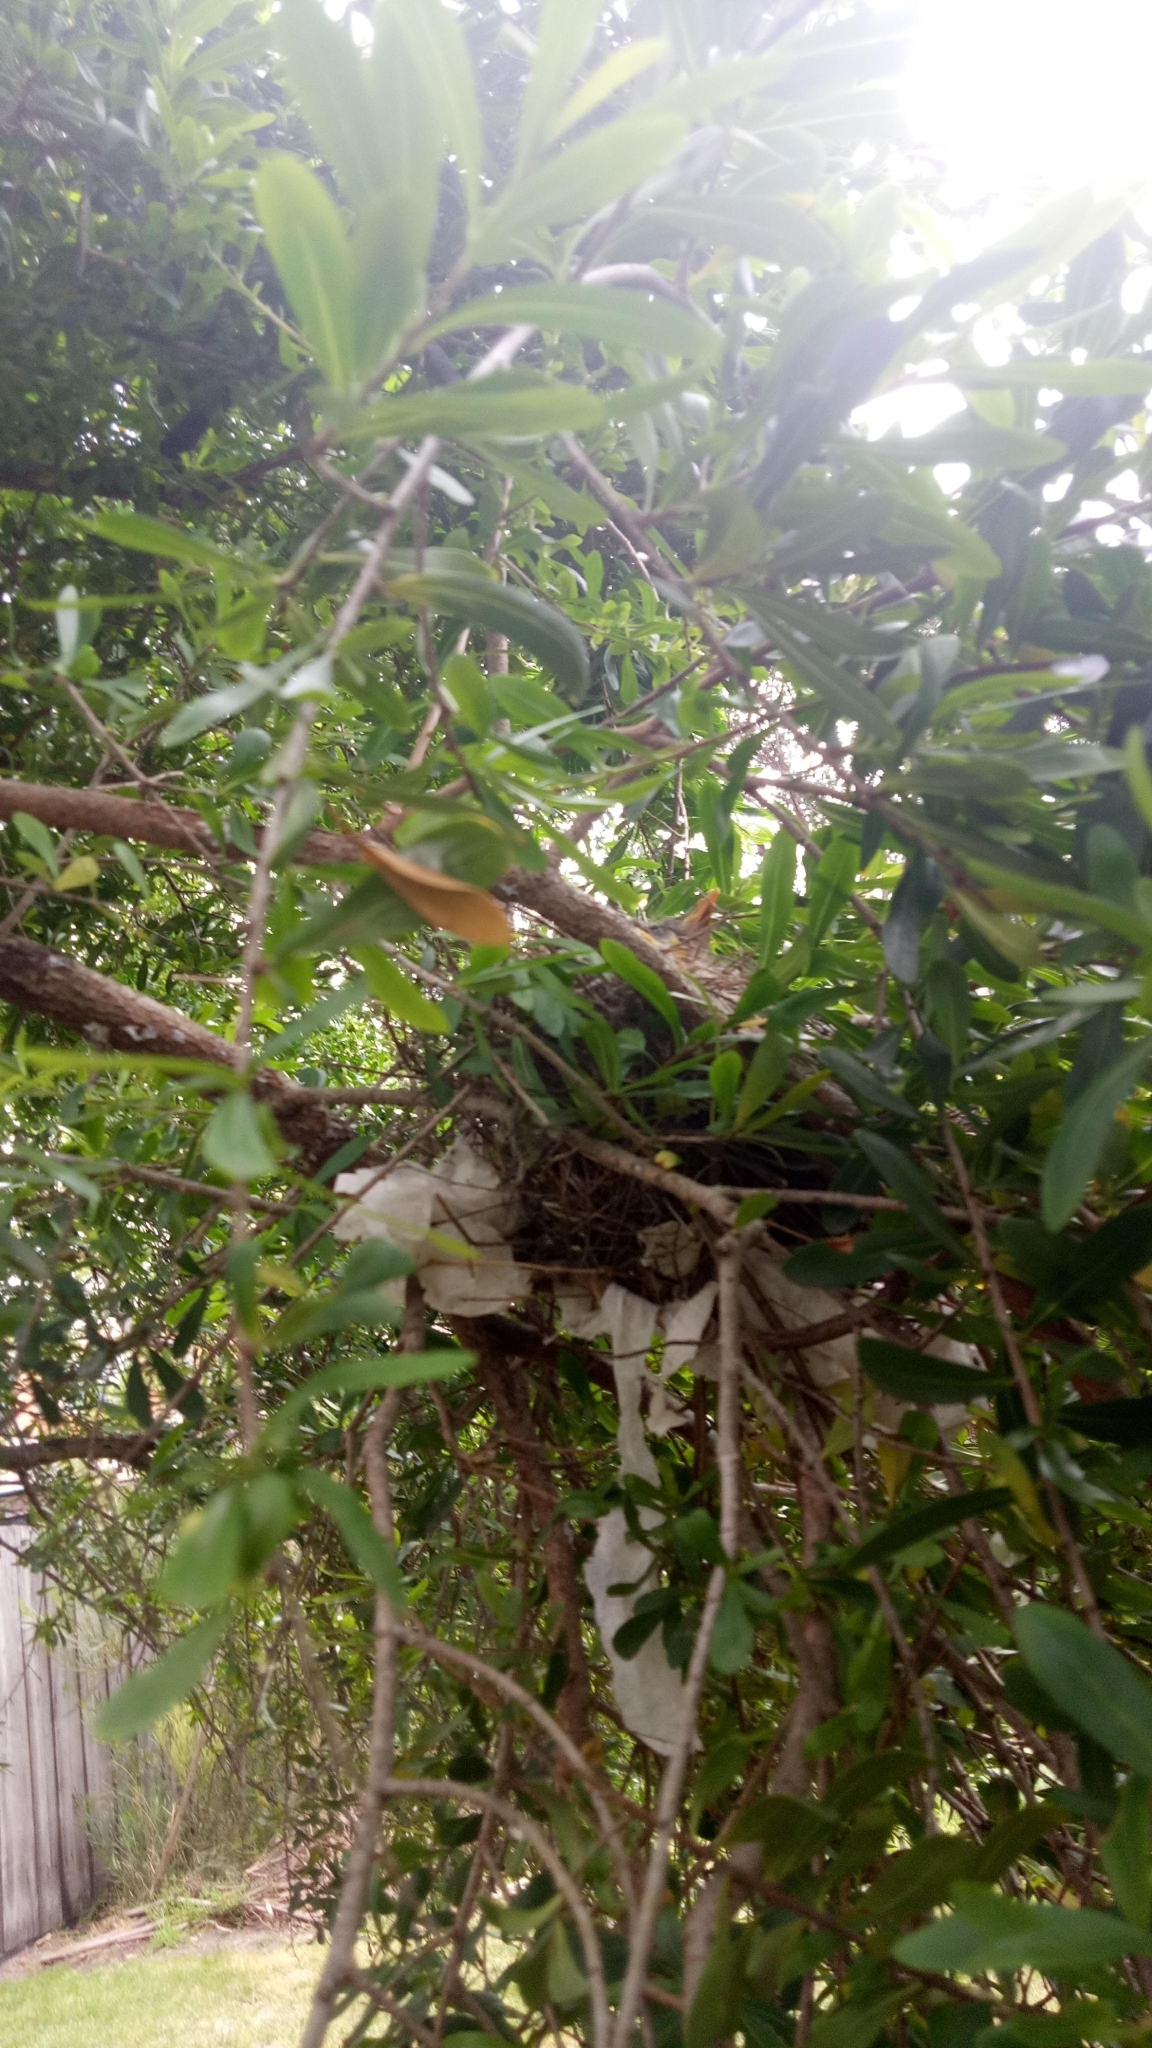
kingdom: Animalia
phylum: Chordata
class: Aves
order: Passeriformes
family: Meliphagidae
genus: Manorina
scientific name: Manorina melanocephala
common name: Noisy miner
